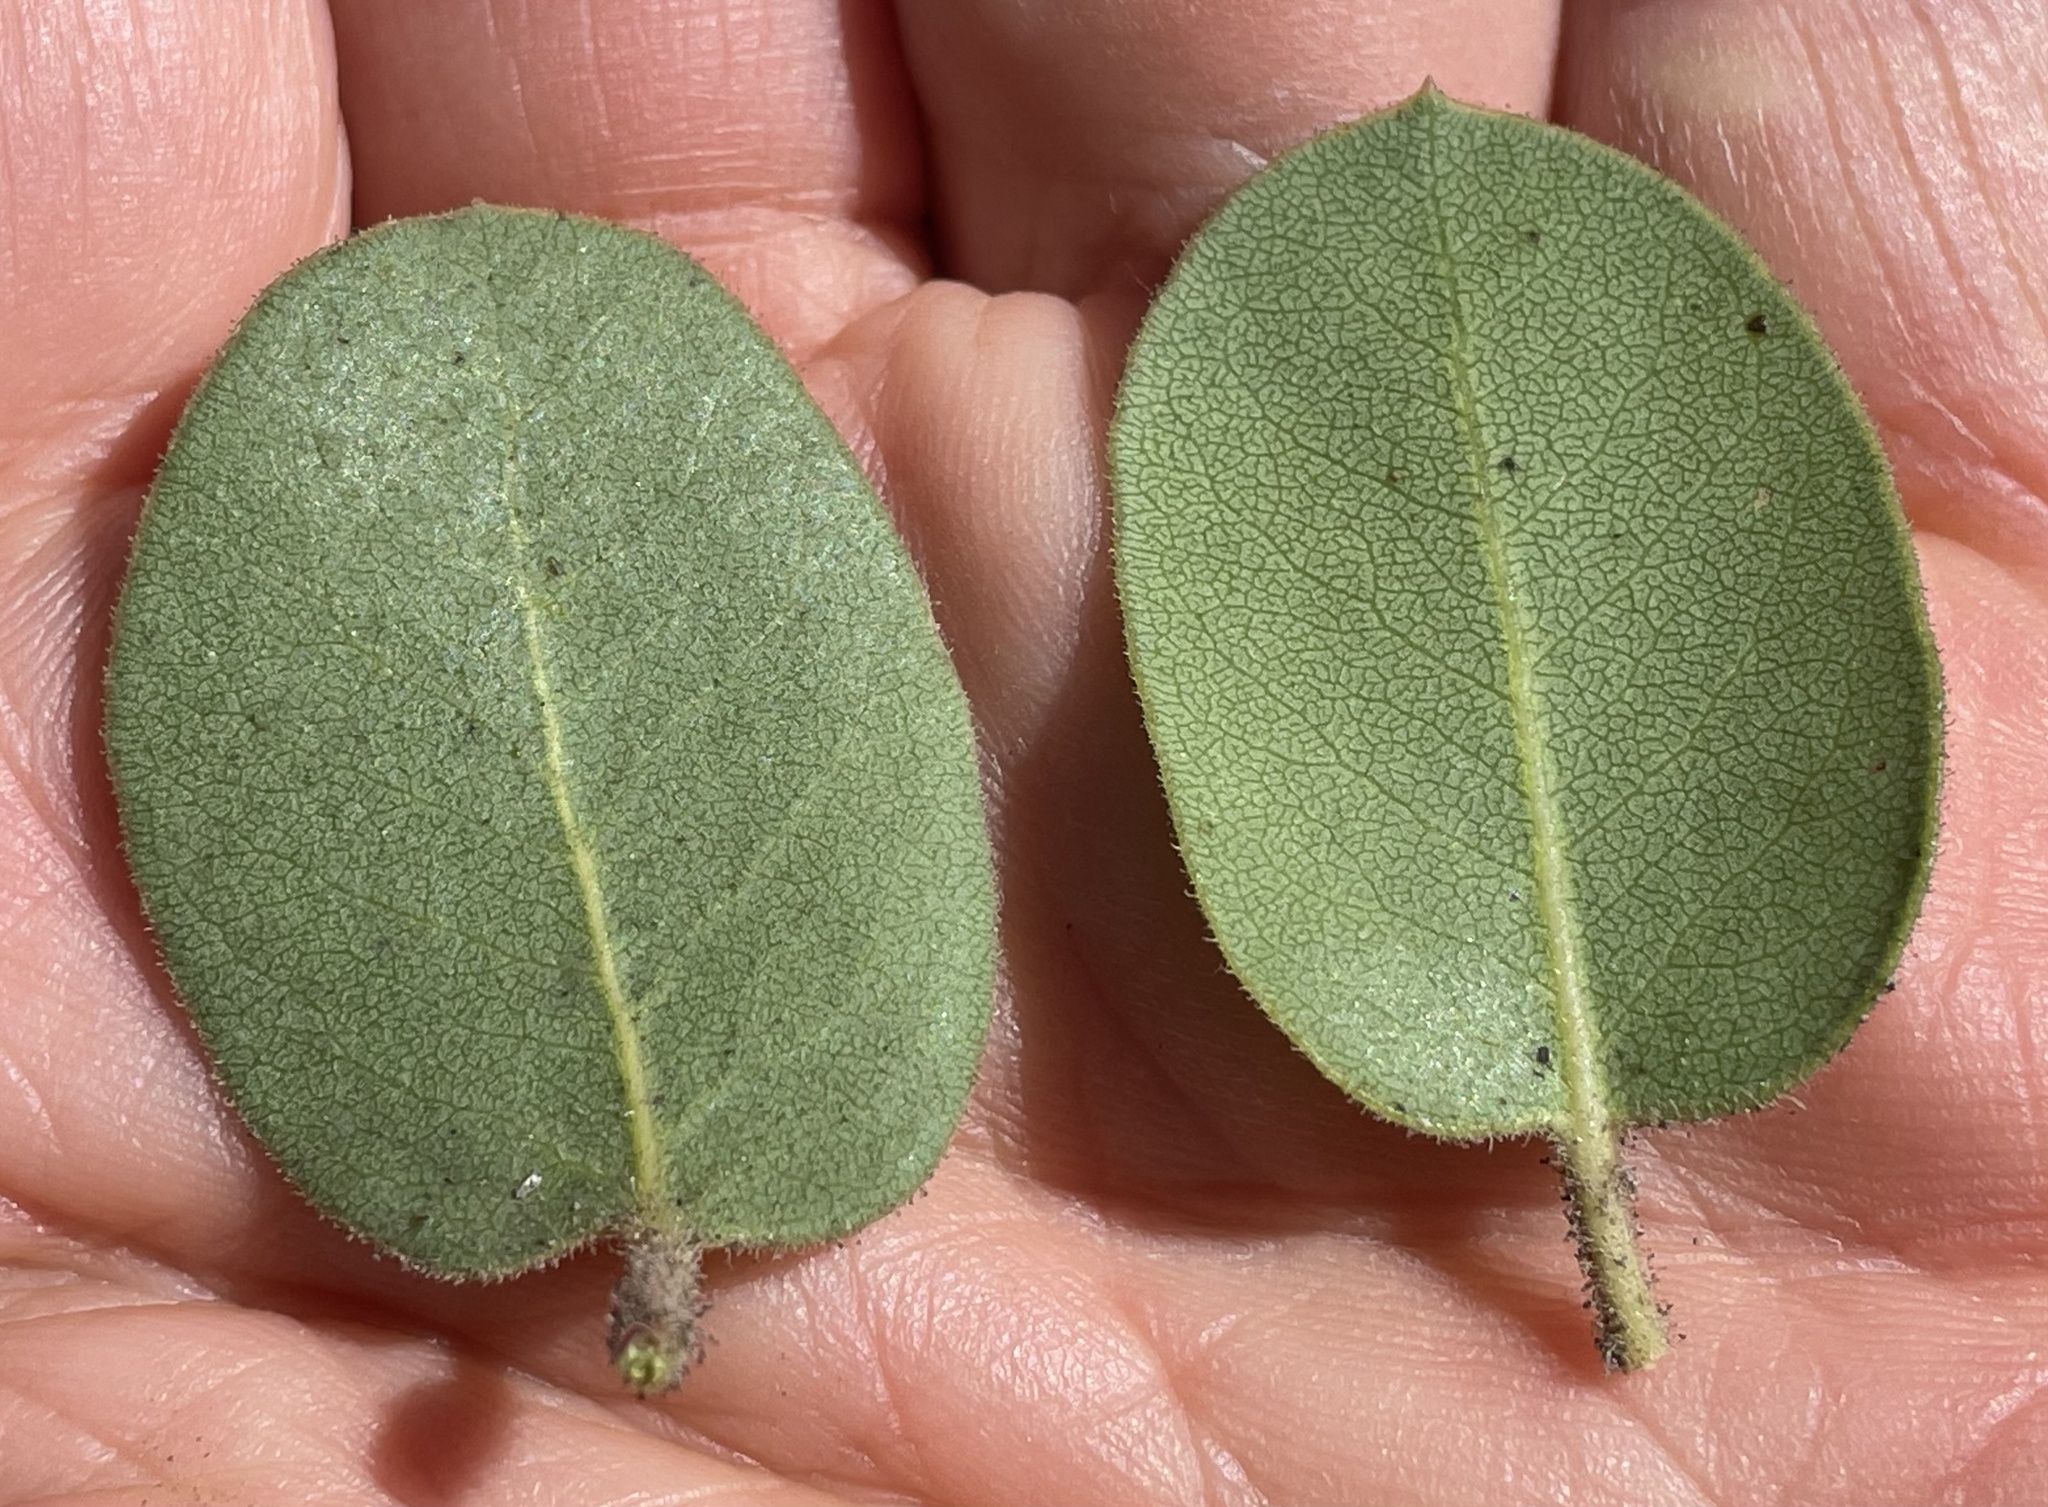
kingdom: Plantae
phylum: Tracheophyta
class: Magnoliopsida
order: Ericales
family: Ericaceae
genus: Arctostaphylos
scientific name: Arctostaphylos montereyensis
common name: Monterey manzanita
